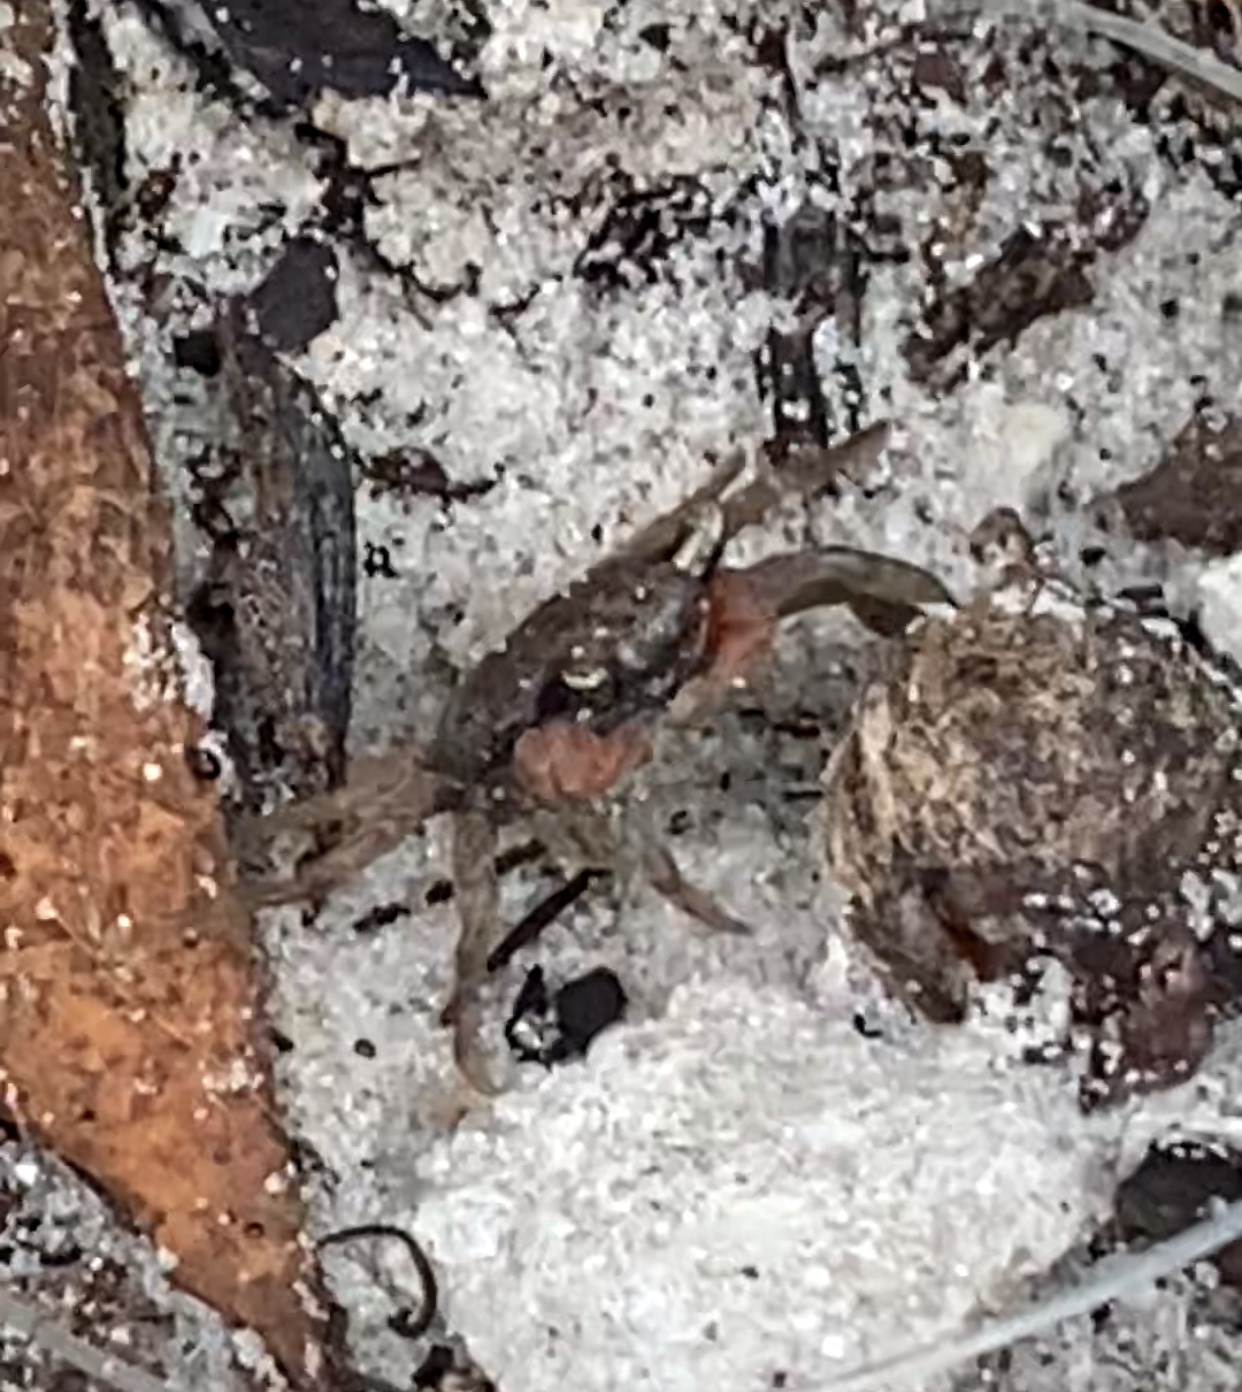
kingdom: Animalia
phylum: Arthropoda
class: Malacostraca
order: Decapoda
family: Sesarmidae
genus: Armases
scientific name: Armases cinereum
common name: Squareback marsh crab
